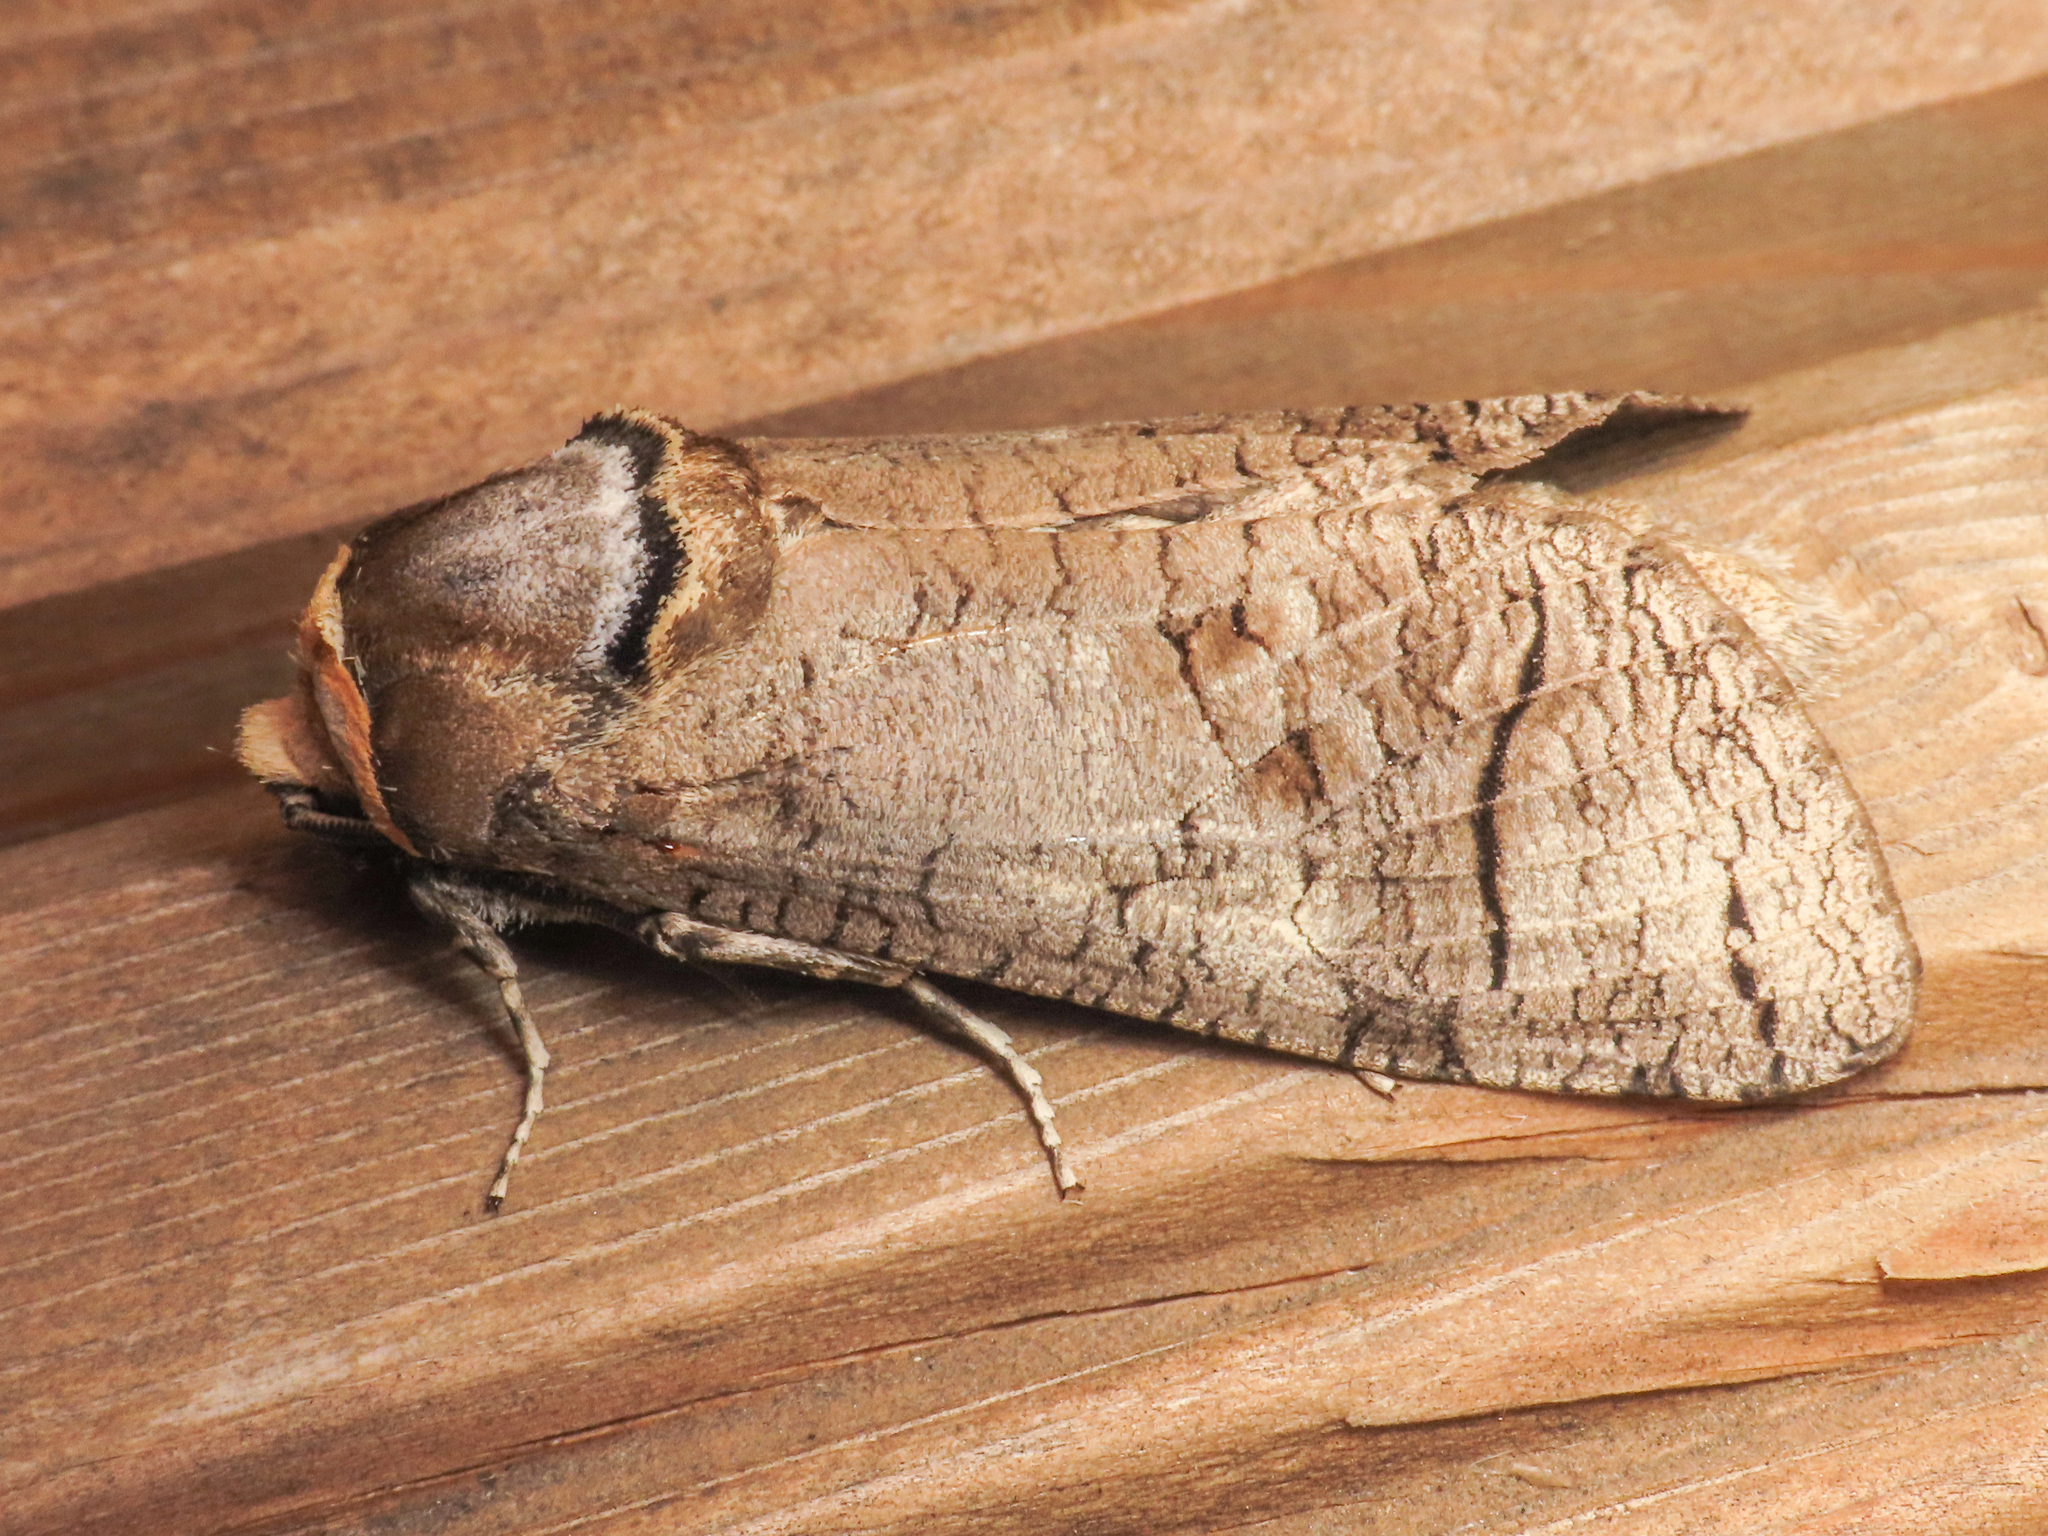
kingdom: Animalia
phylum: Arthropoda
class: Insecta
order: Lepidoptera
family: Cossidae
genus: Cossus
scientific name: Cossus cossus
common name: Goat moth
